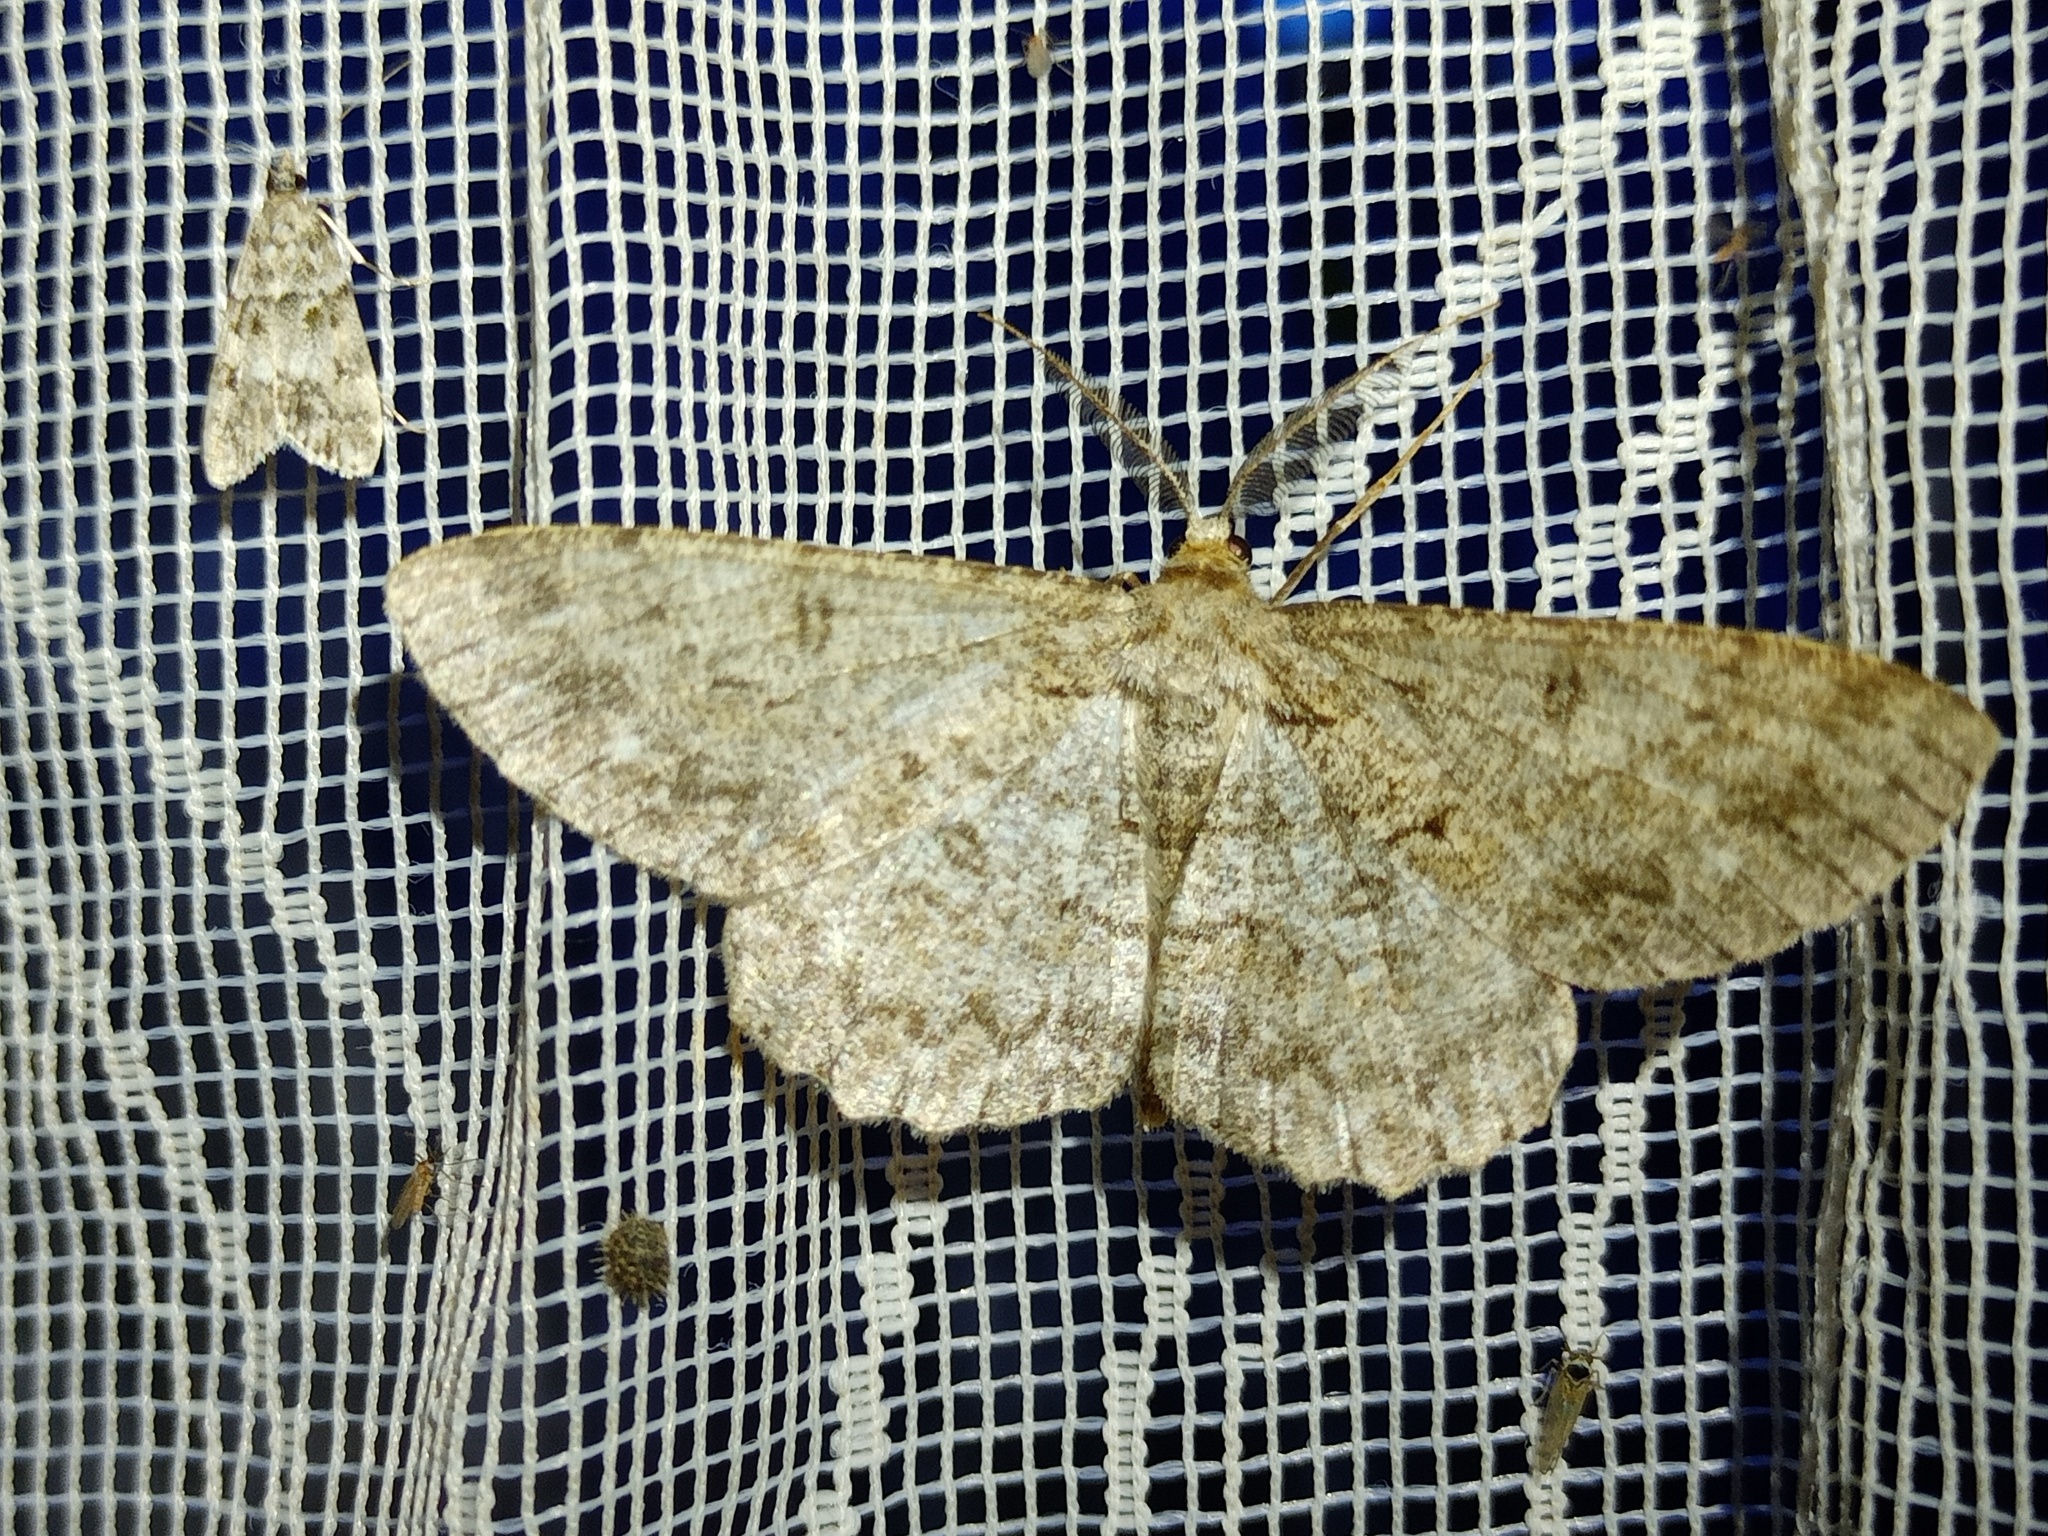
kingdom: Animalia
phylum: Arthropoda
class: Insecta
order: Lepidoptera
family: Geometridae
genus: Hypomecis
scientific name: Hypomecis punctinalis
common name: Pale oak beauty
